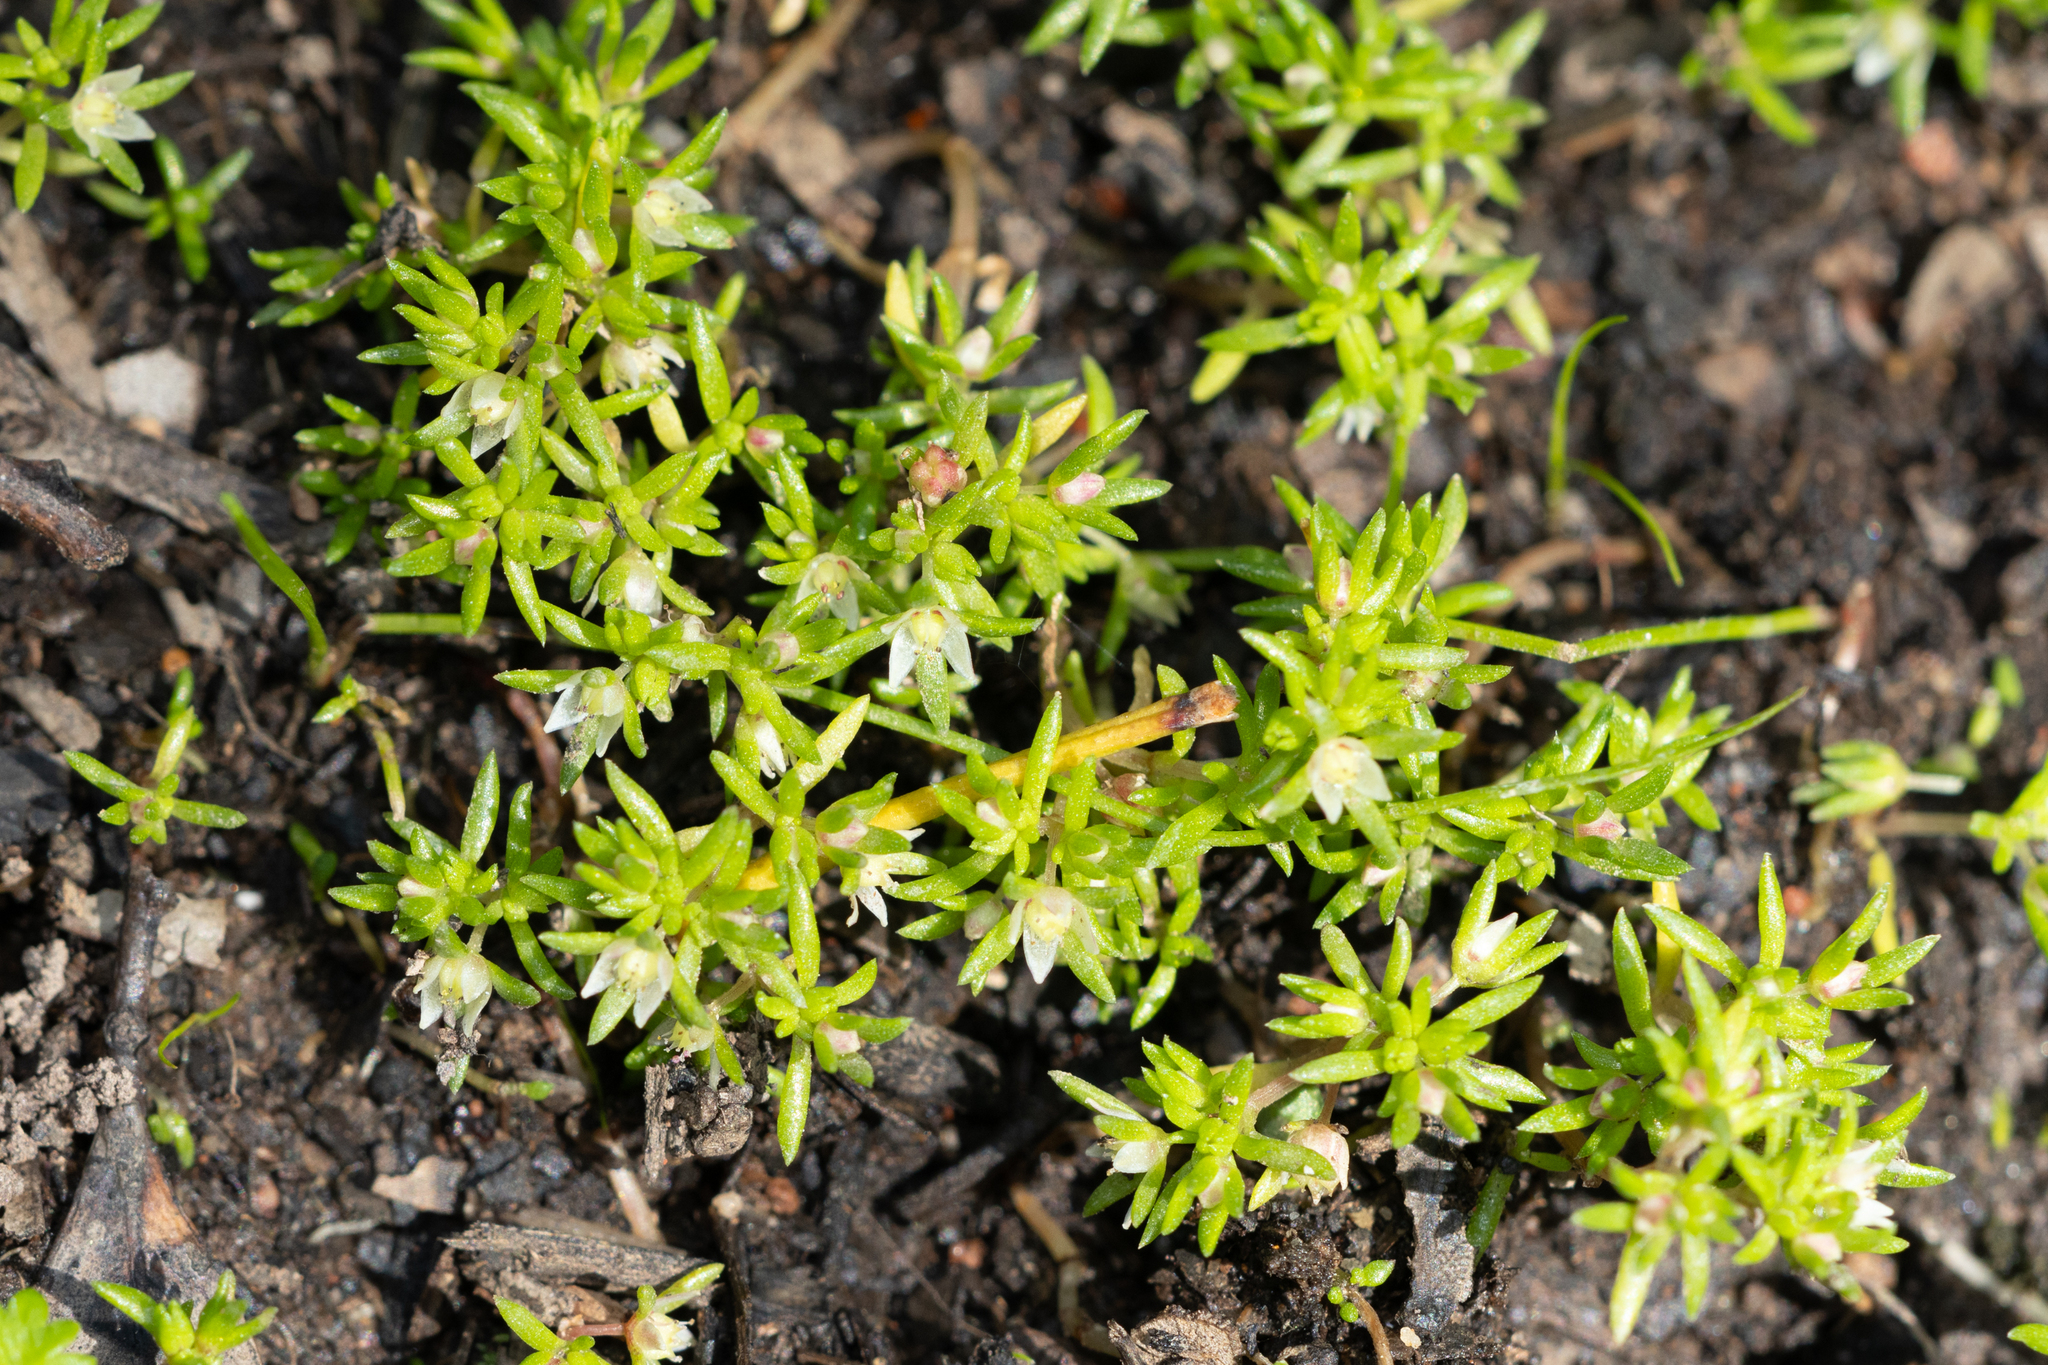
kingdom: Plantae
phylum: Tracheophyta
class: Magnoliopsida
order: Saxifragales
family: Crassulaceae
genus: Crassula
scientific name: Crassula decumbens
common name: Scilly pigmyweed
